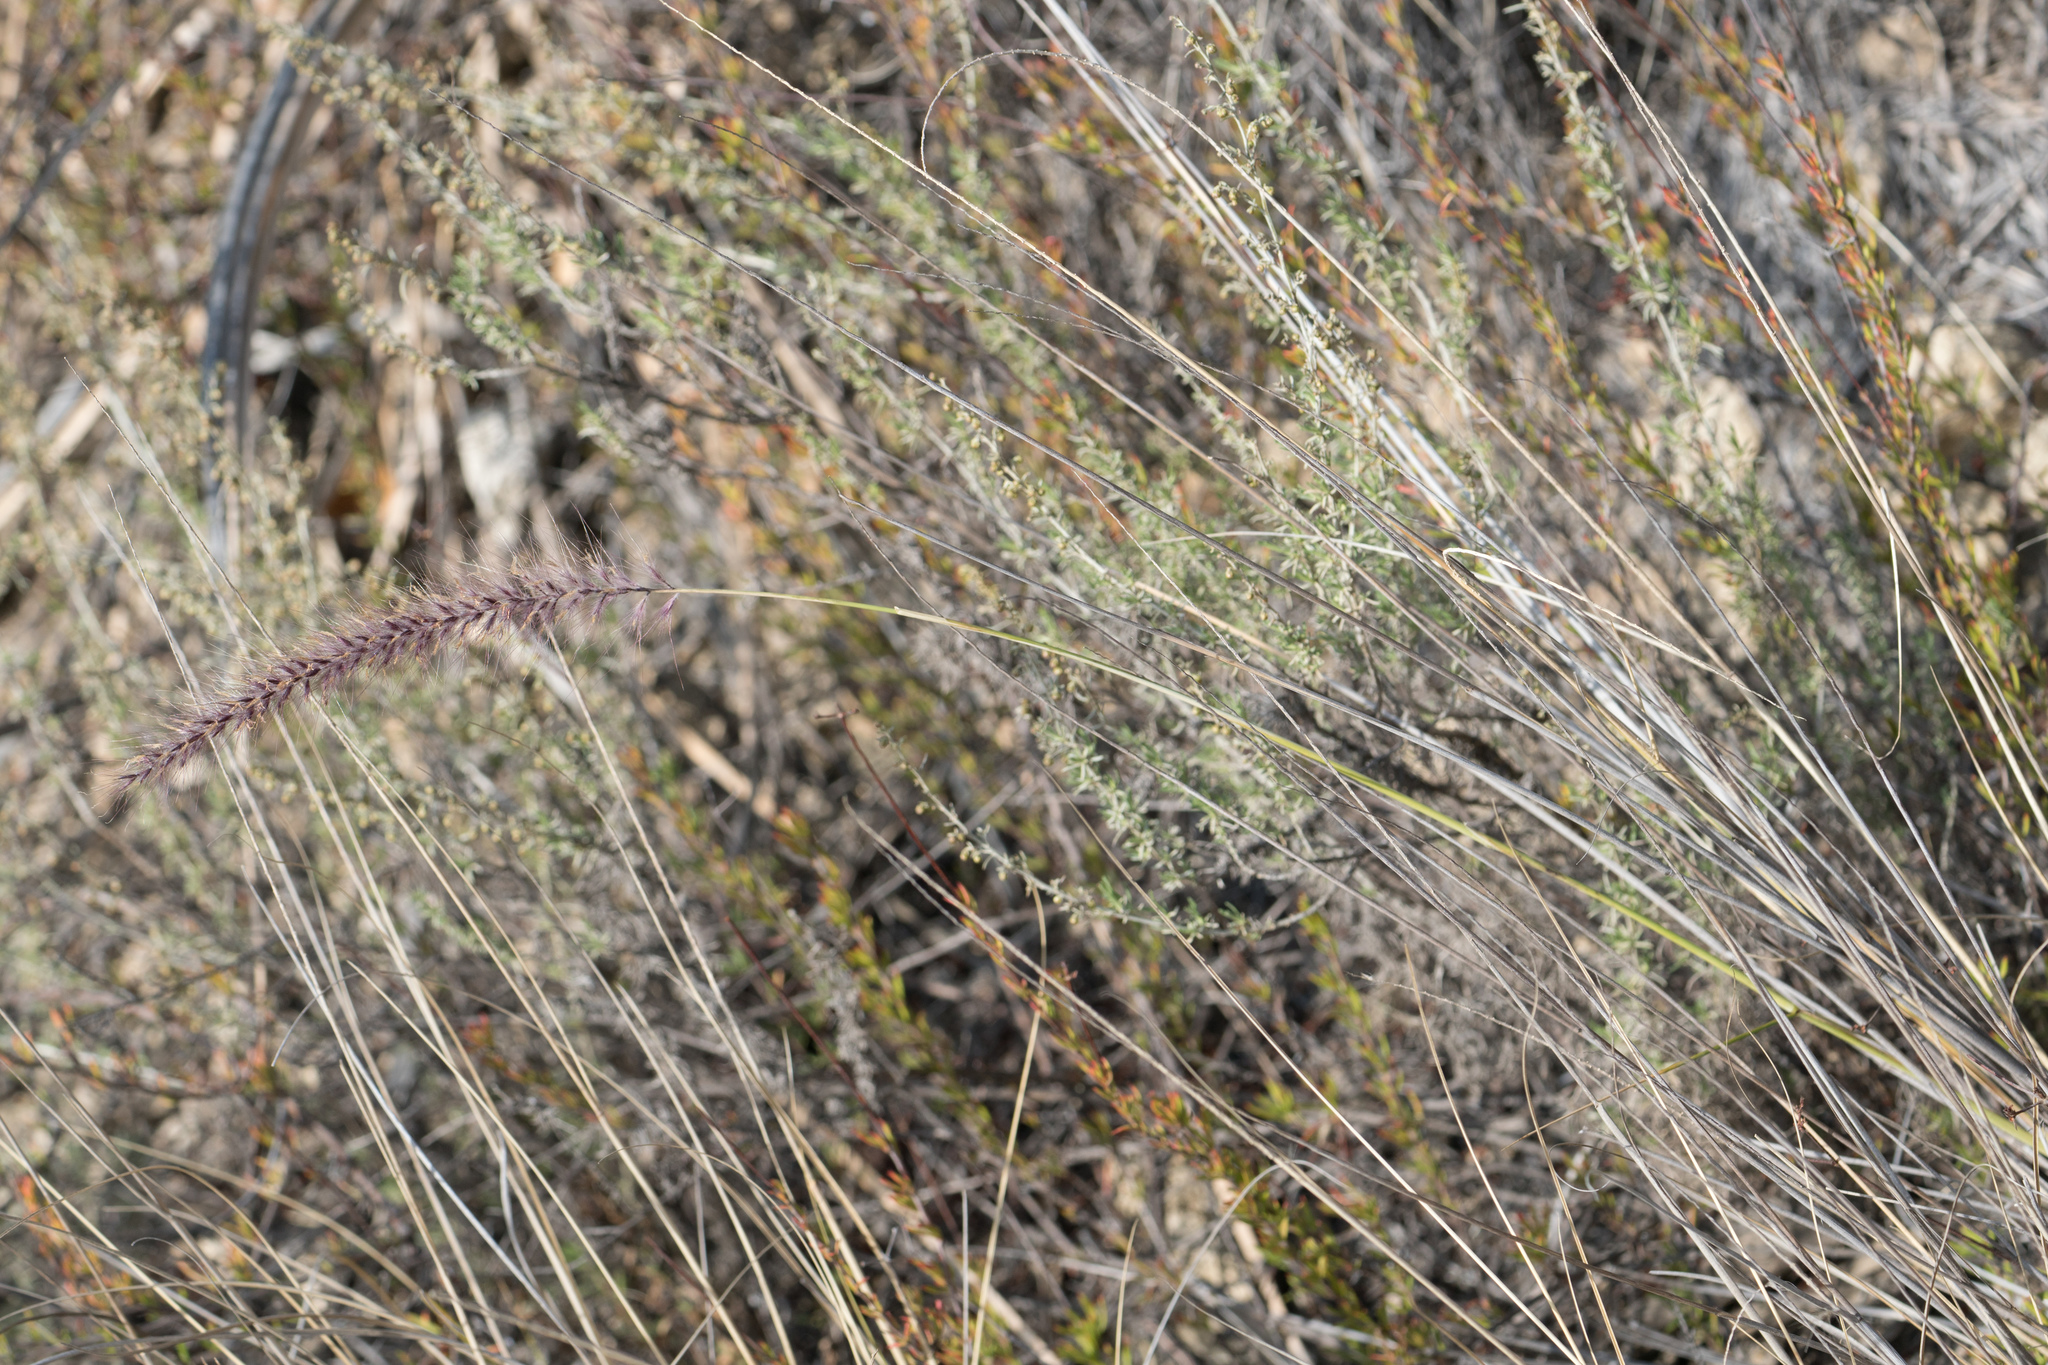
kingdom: Plantae
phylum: Tracheophyta
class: Liliopsida
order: Poales
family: Poaceae
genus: Cenchrus
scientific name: Cenchrus setaceus
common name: Crimson fountaingrass
